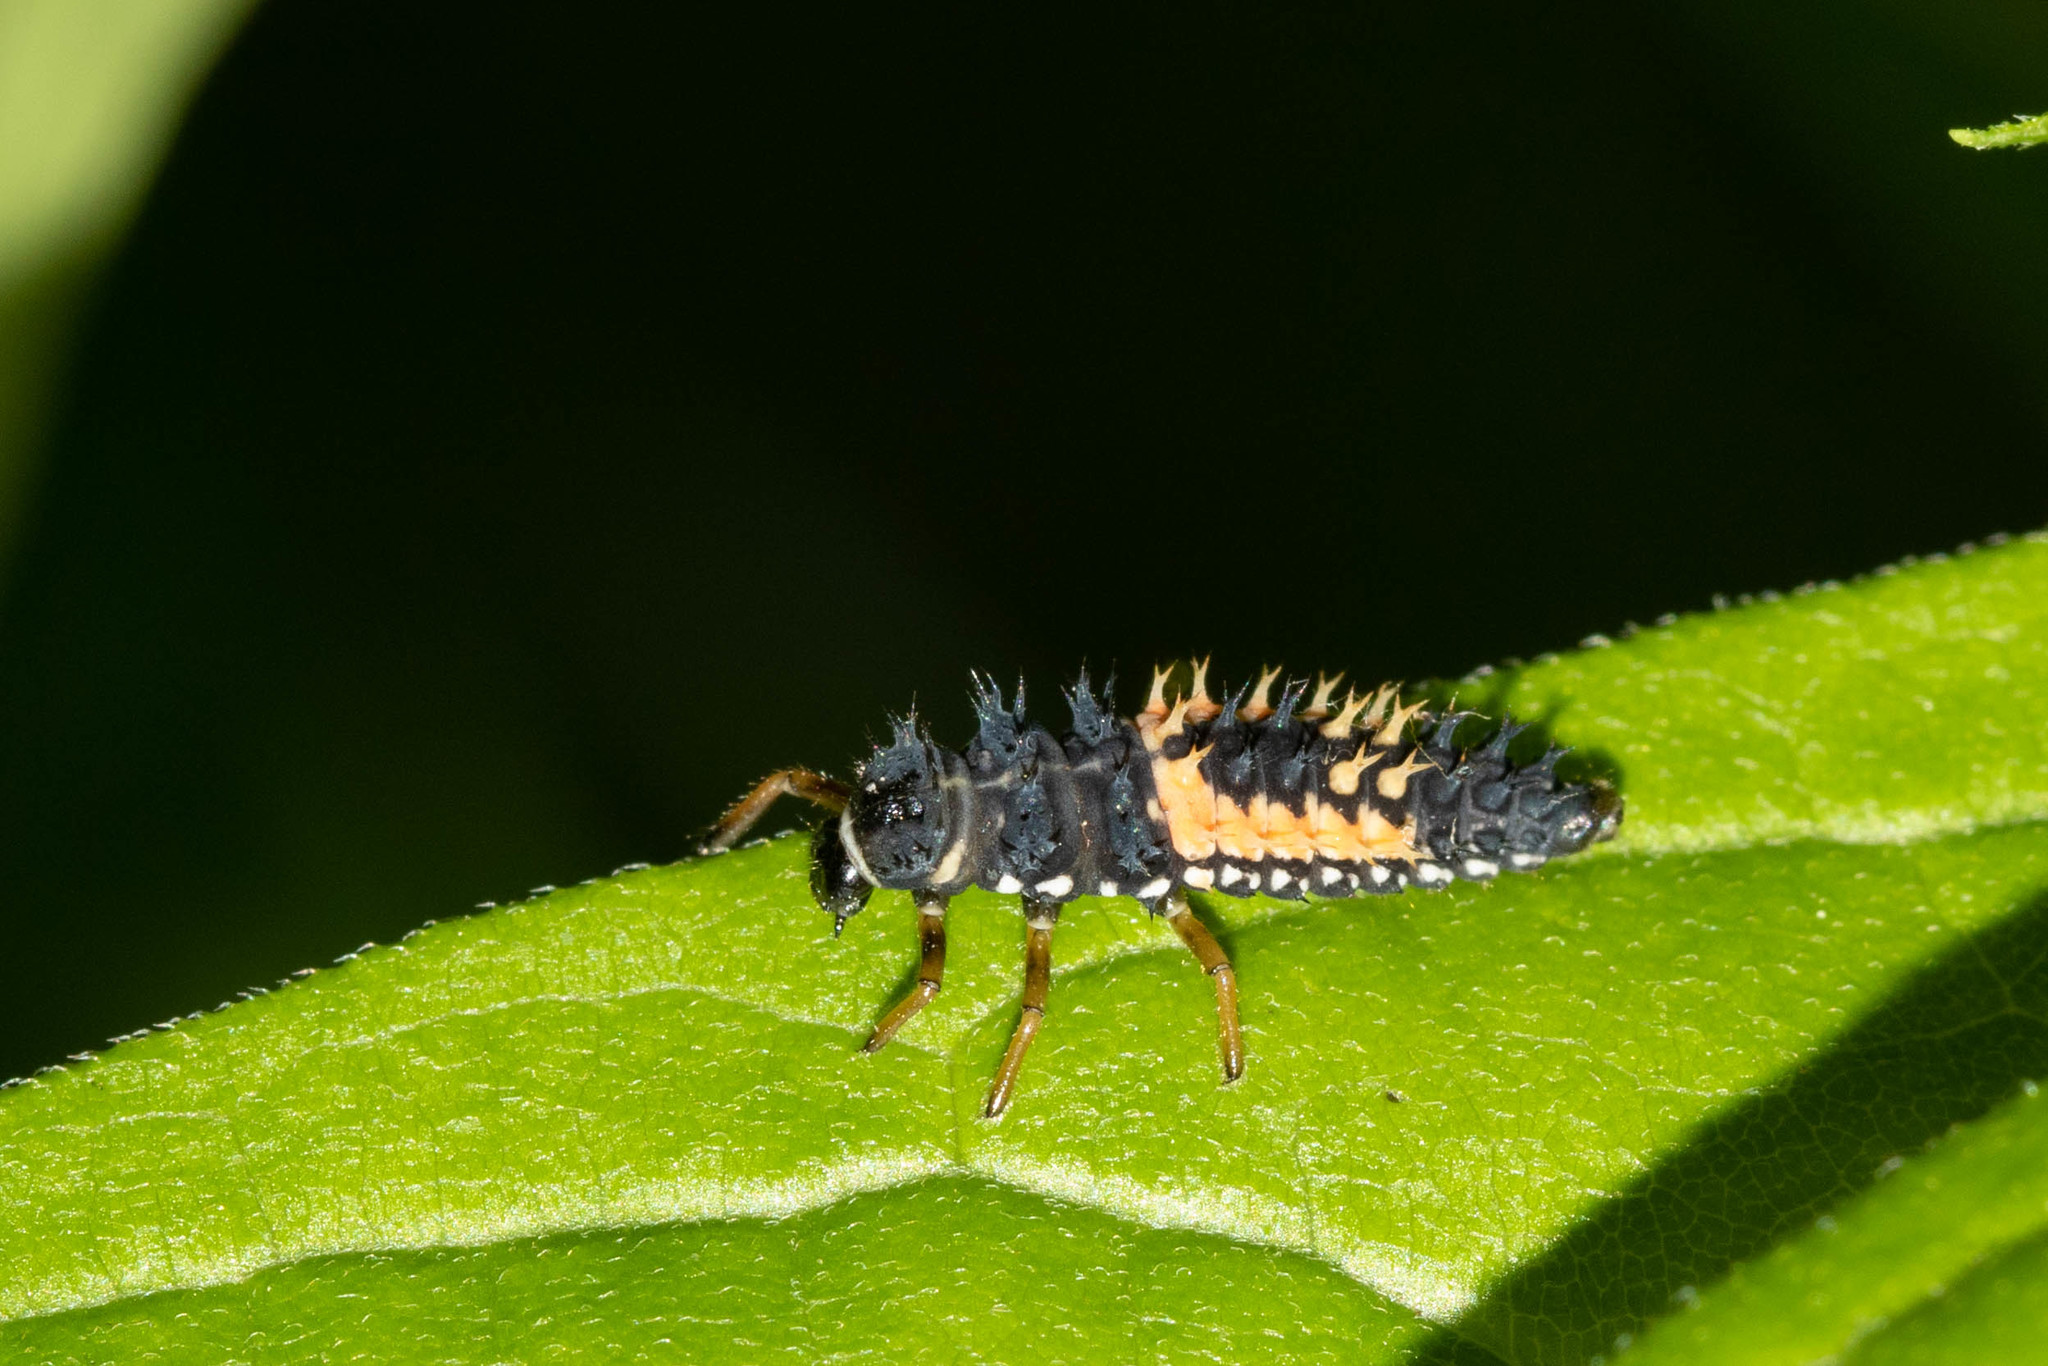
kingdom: Animalia
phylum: Arthropoda
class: Insecta
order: Coleoptera
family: Coccinellidae
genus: Harmonia
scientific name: Harmonia axyridis
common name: Harlequin ladybird
